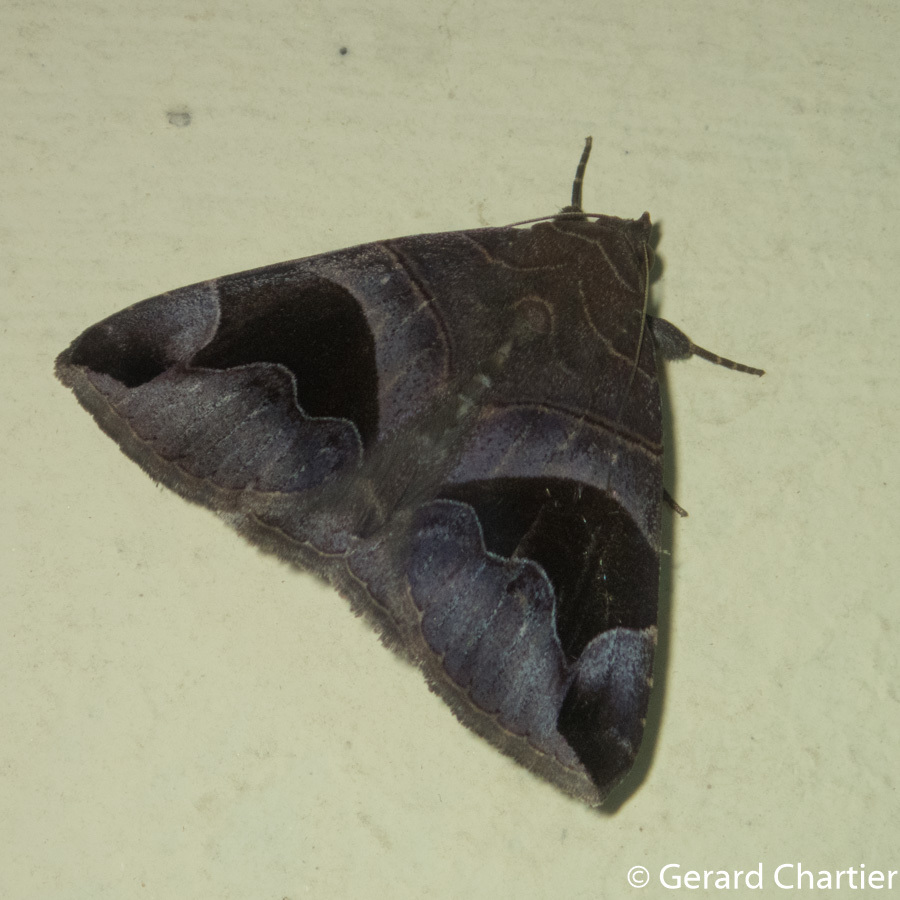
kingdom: Animalia
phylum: Arthropoda
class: Insecta
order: Lepidoptera
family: Erebidae
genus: Bastilla
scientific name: Bastilla joviana
